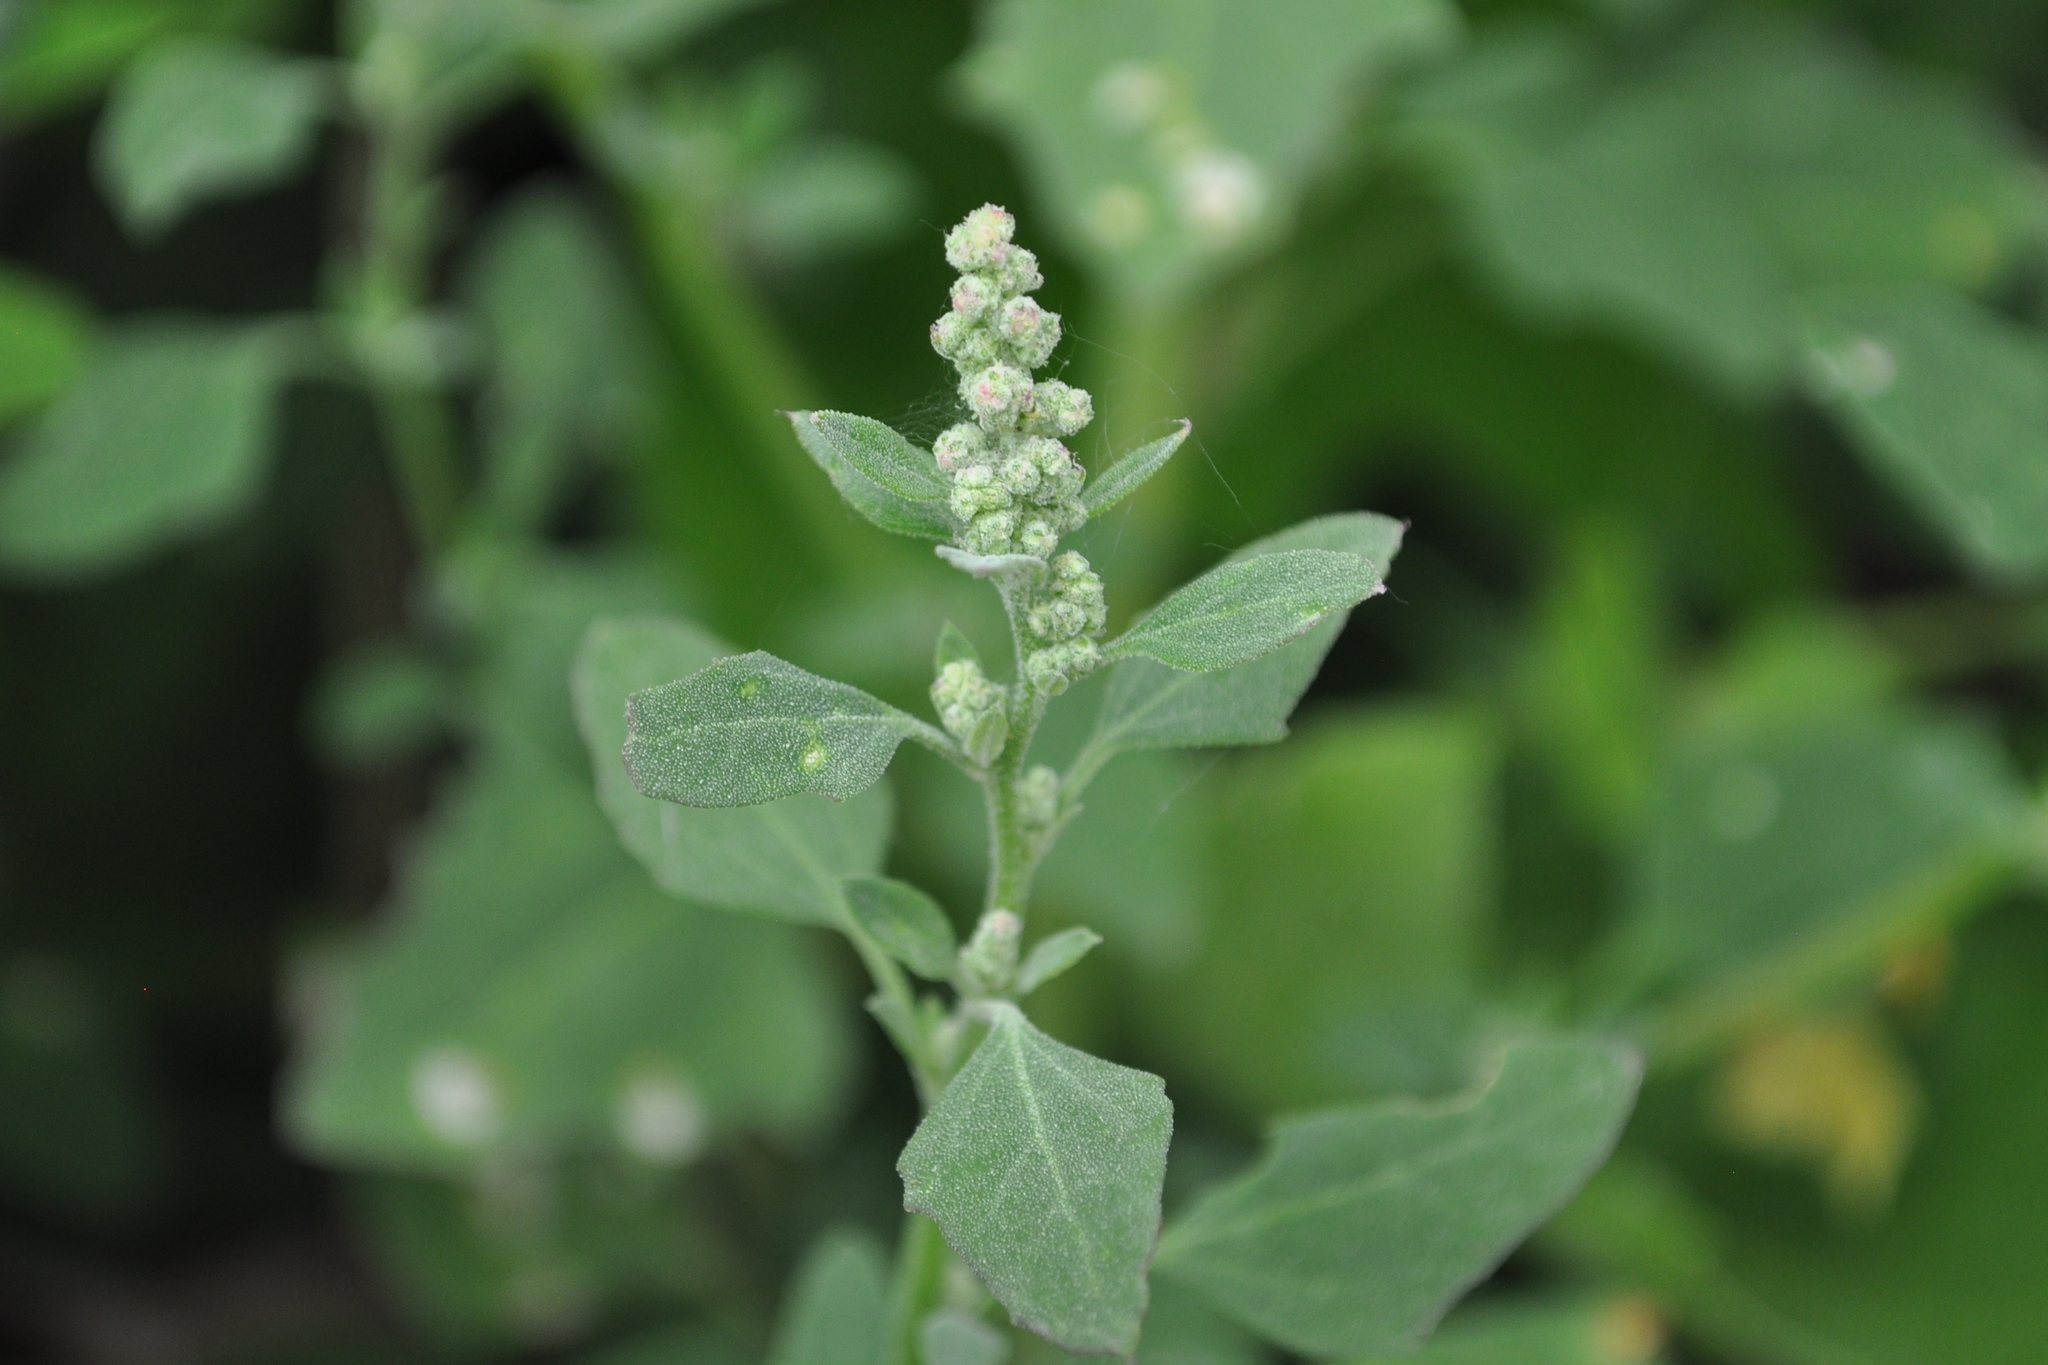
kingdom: Plantae
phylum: Tracheophyta
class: Magnoliopsida
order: Caryophyllales
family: Amaranthaceae
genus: Chenopodium
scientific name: Chenopodium album
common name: Fat-hen
